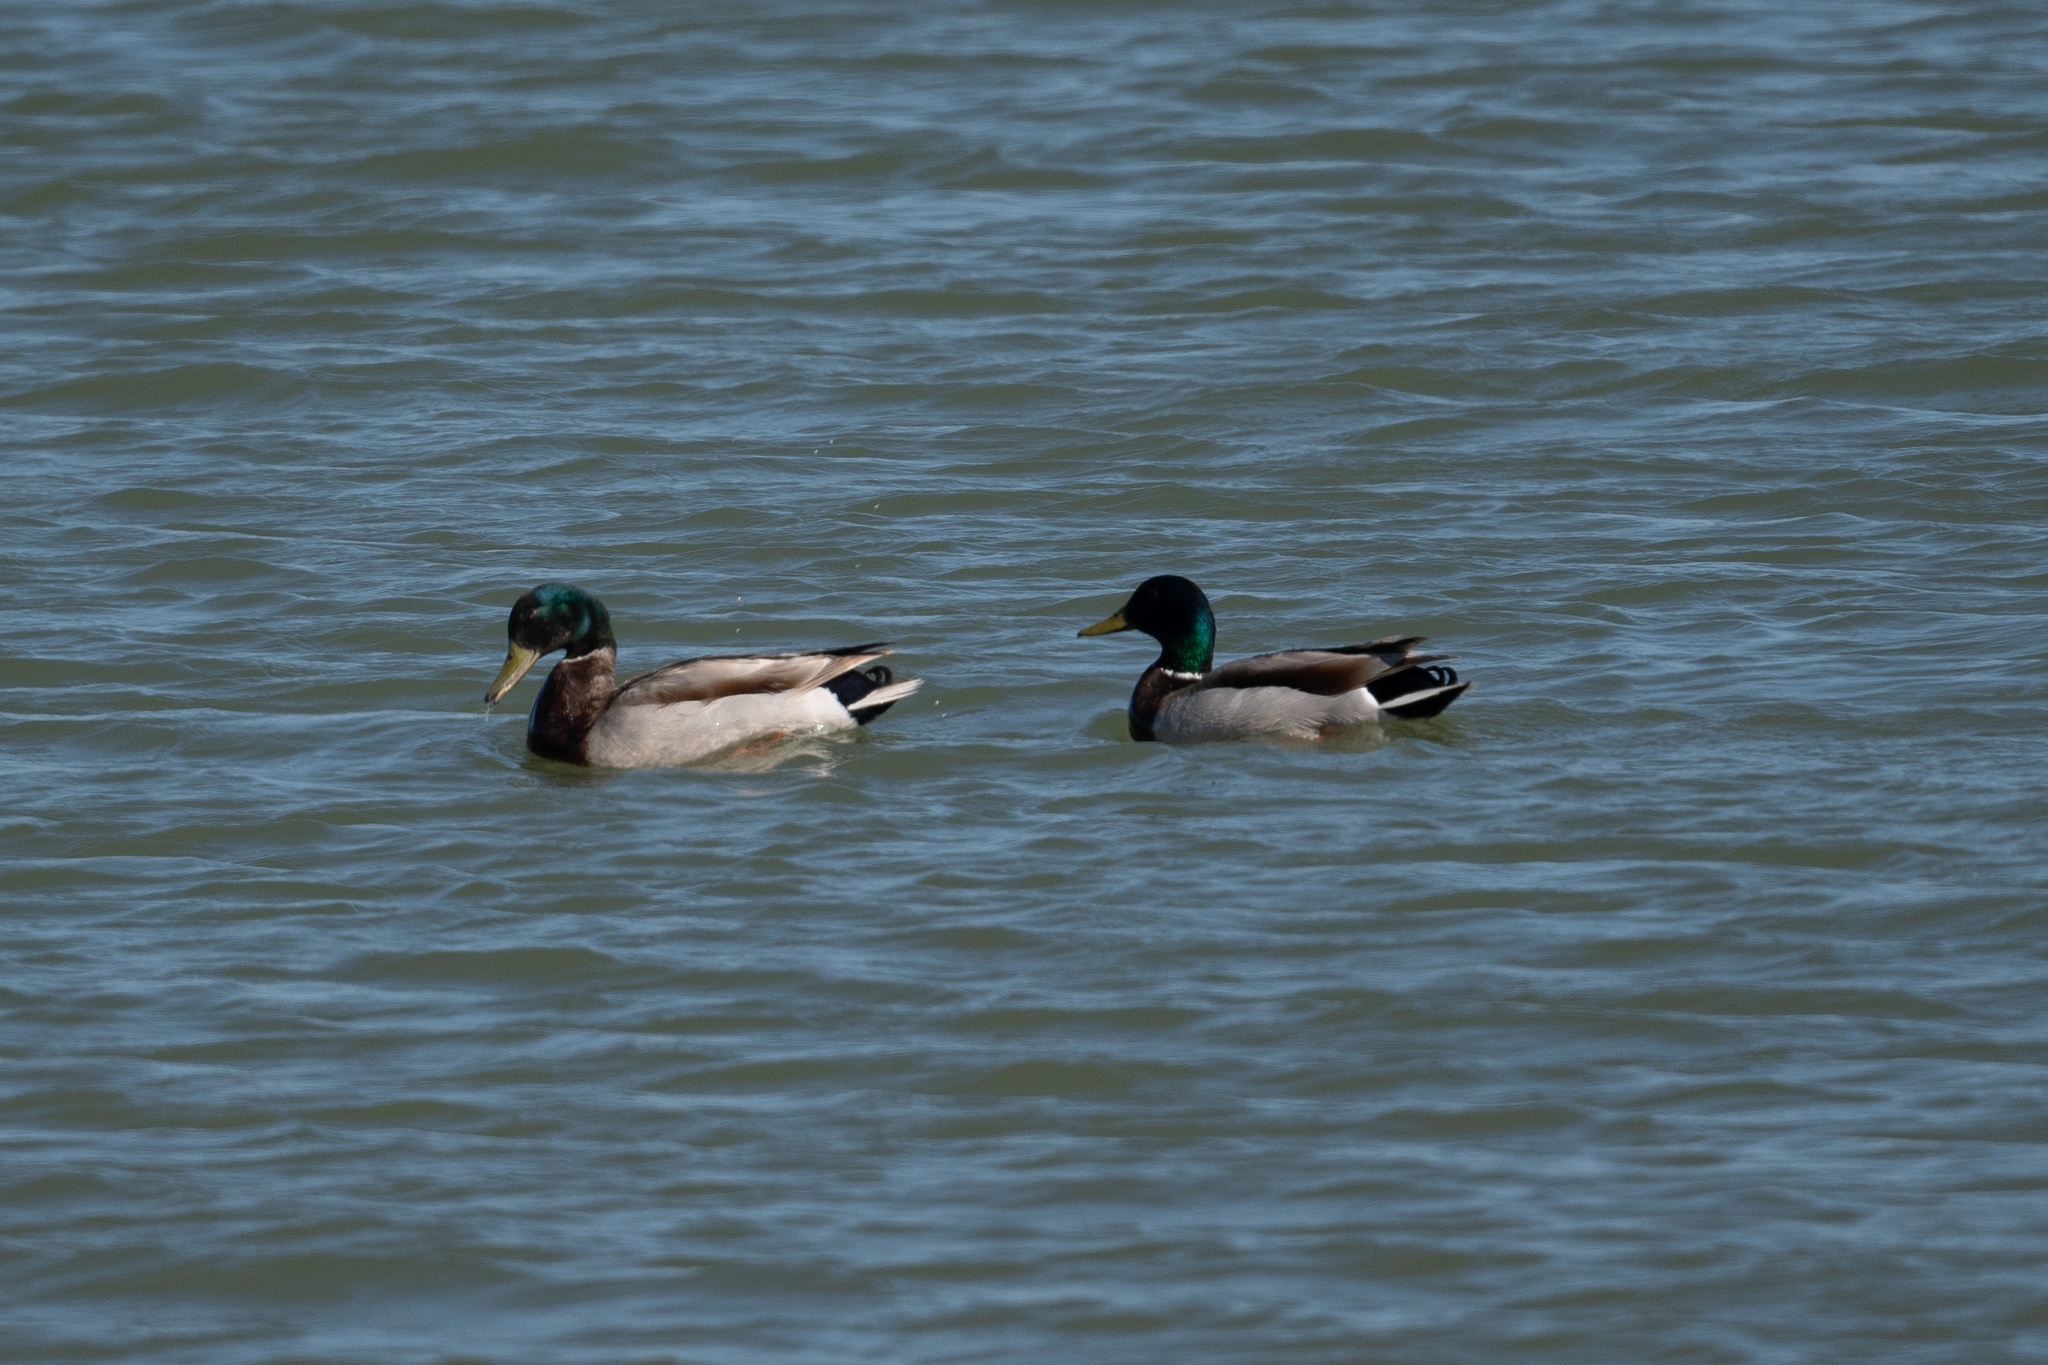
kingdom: Animalia
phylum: Chordata
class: Aves
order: Anseriformes
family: Anatidae
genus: Anas
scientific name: Anas platyrhynchos
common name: Mallard
